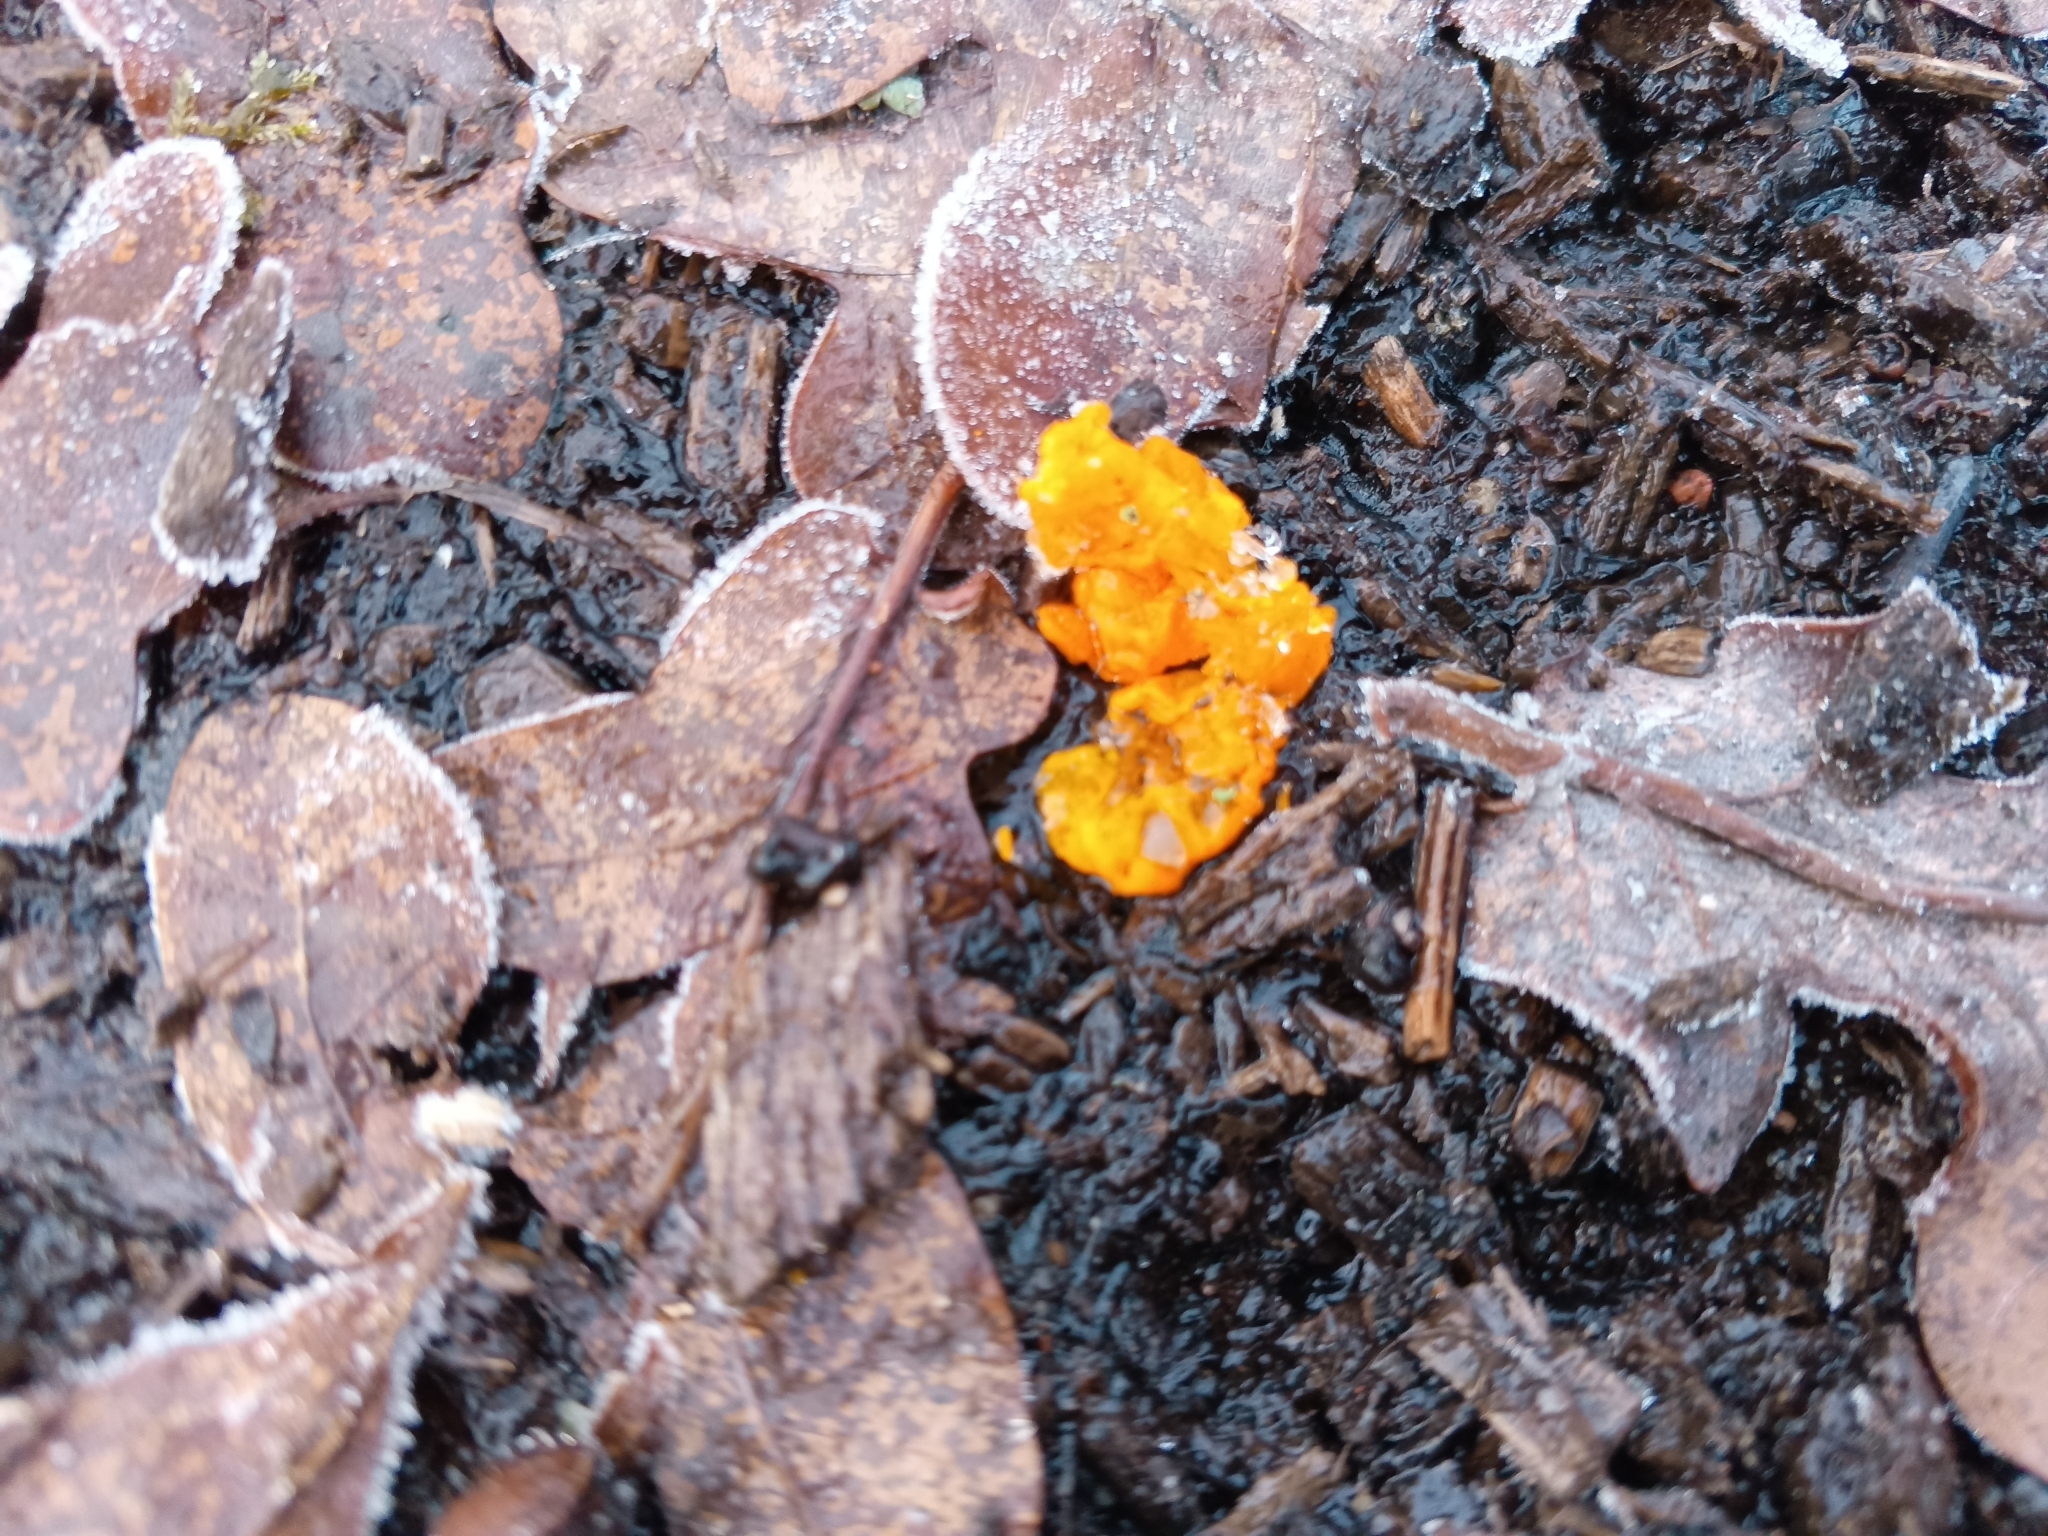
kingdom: Fungi
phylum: Basidiomycota
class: Tremellomycetes
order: Tremellales
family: Tremellaceae
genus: Tremella
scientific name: Tremella mesenterica
